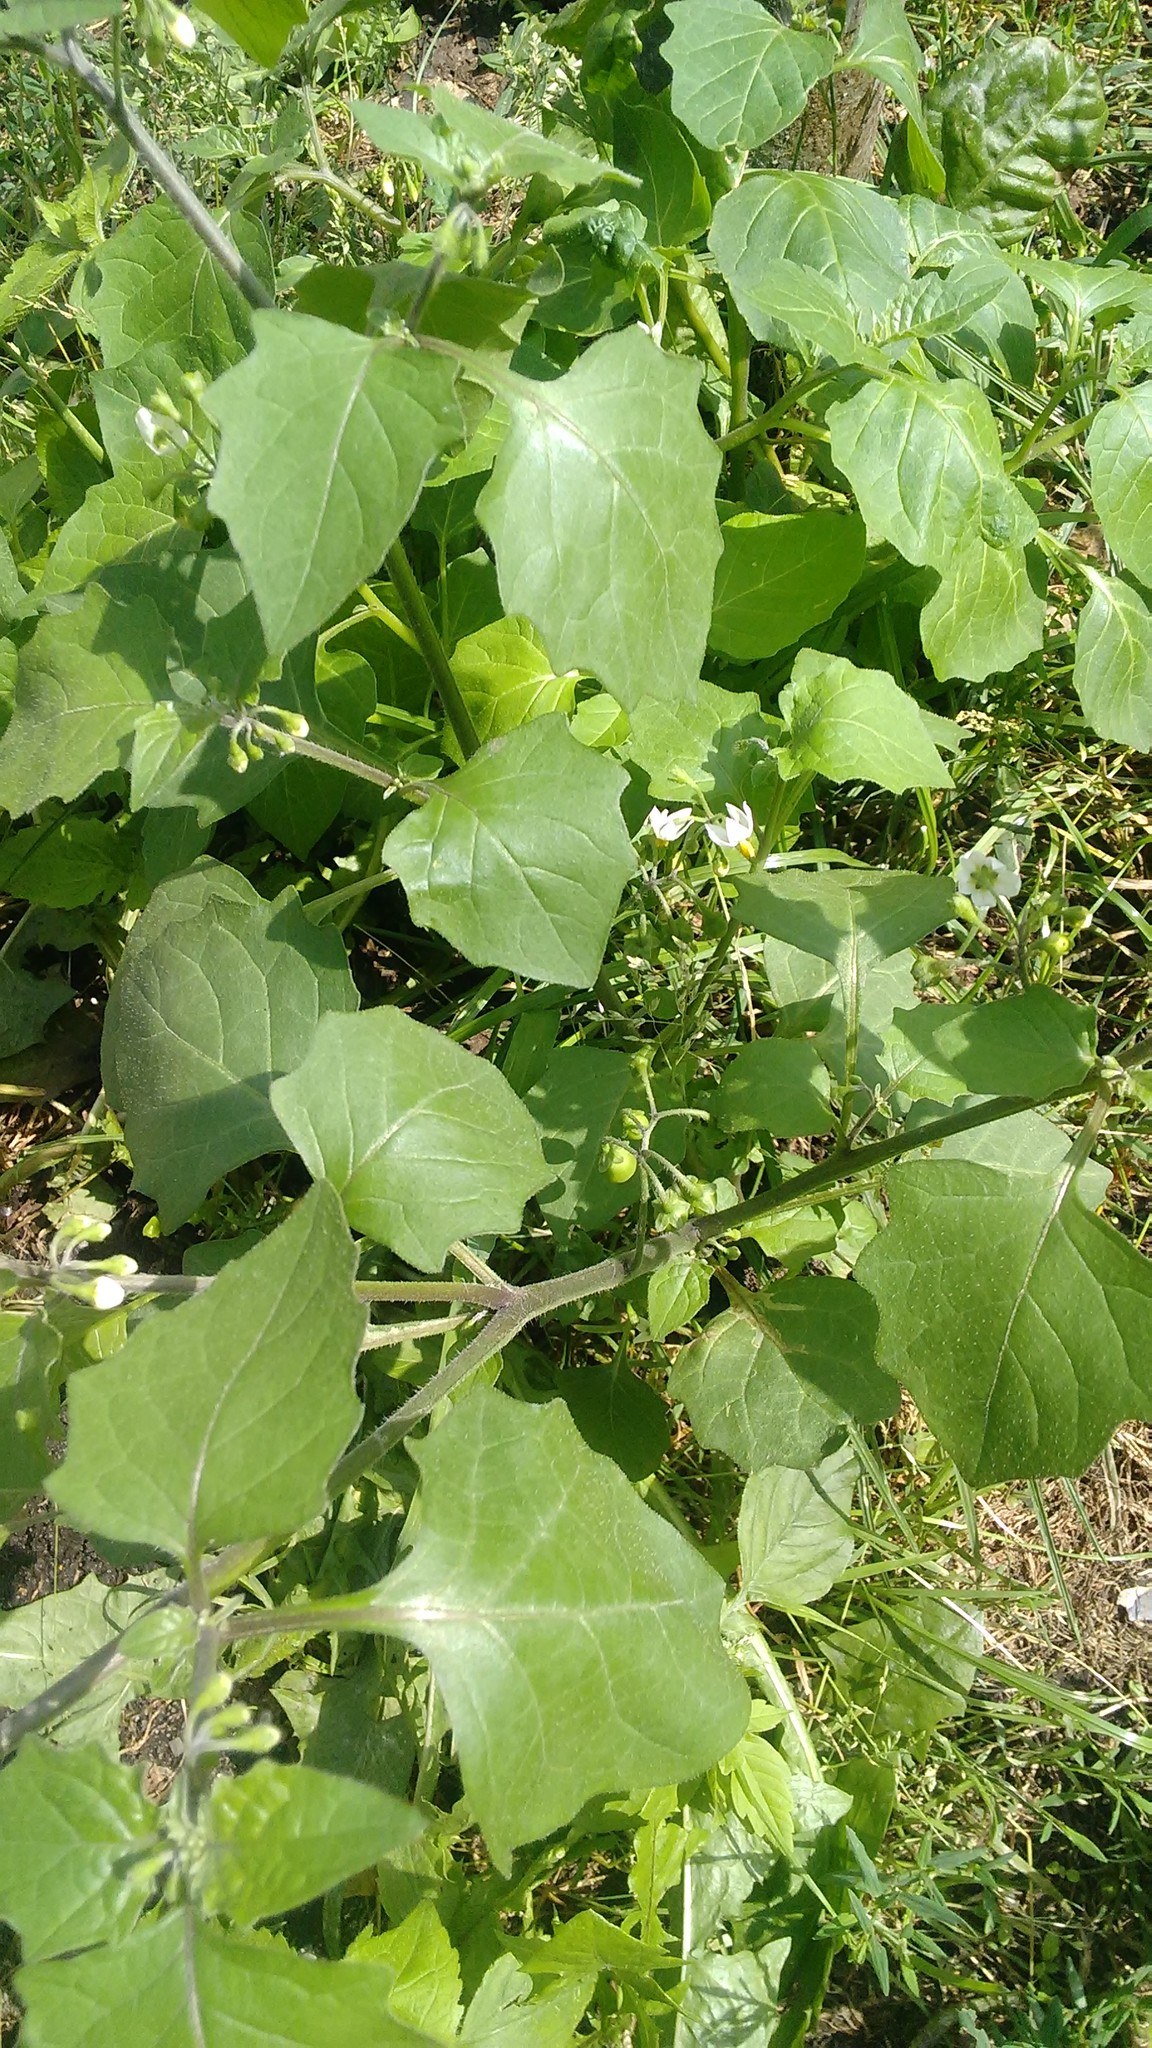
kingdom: Plantae
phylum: Tracheophyta
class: Magnoliopsida
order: Solanales
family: Solanaceae
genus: Solanum
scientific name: Solanum nigrum
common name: Black nightshade
